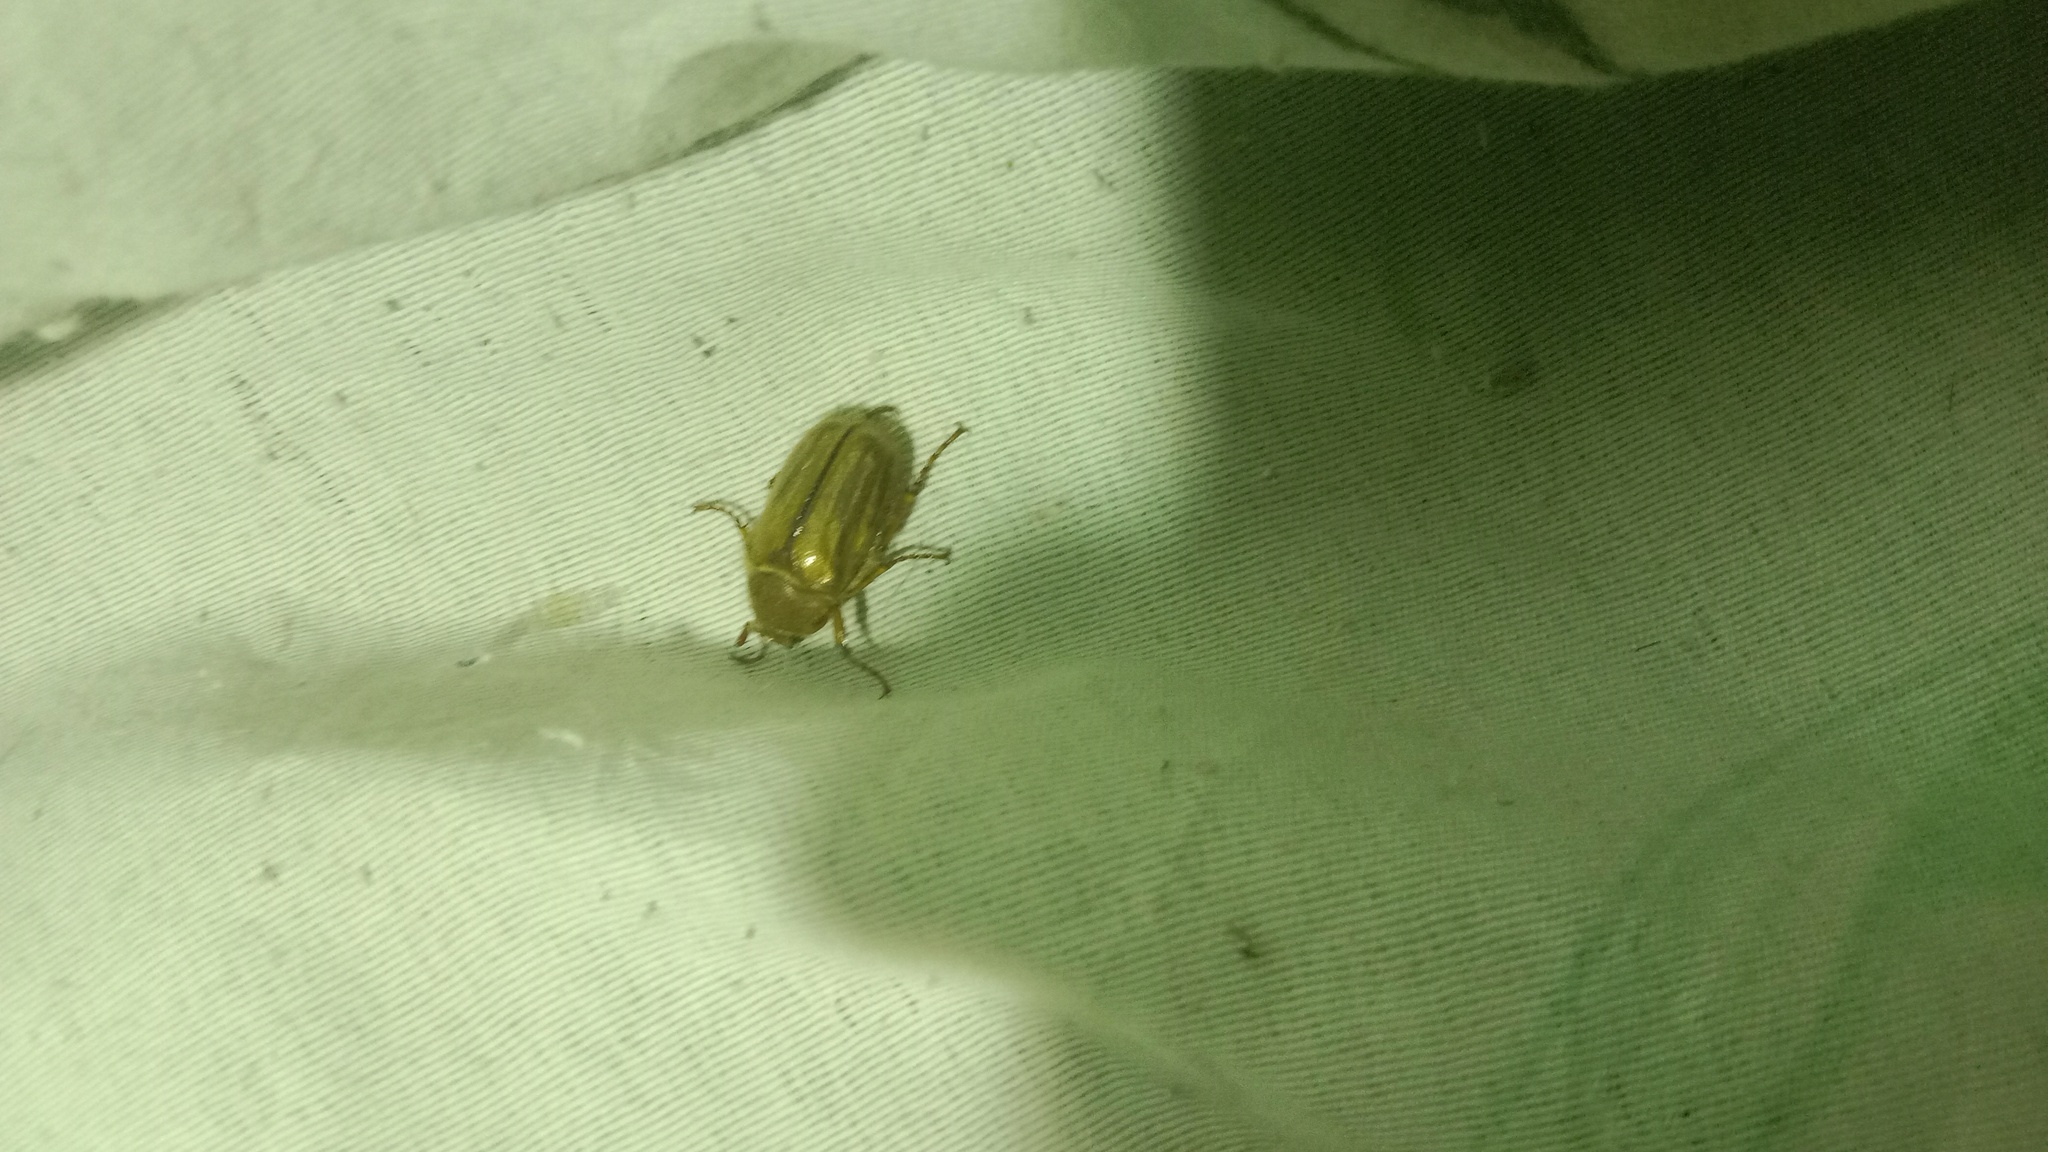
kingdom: Animalia
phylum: Arthropoda
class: Insecta
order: Coleoptera
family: Scarabaeidae
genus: Amphimallon
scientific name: Amphimallon solstitiale
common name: Summer chafer
